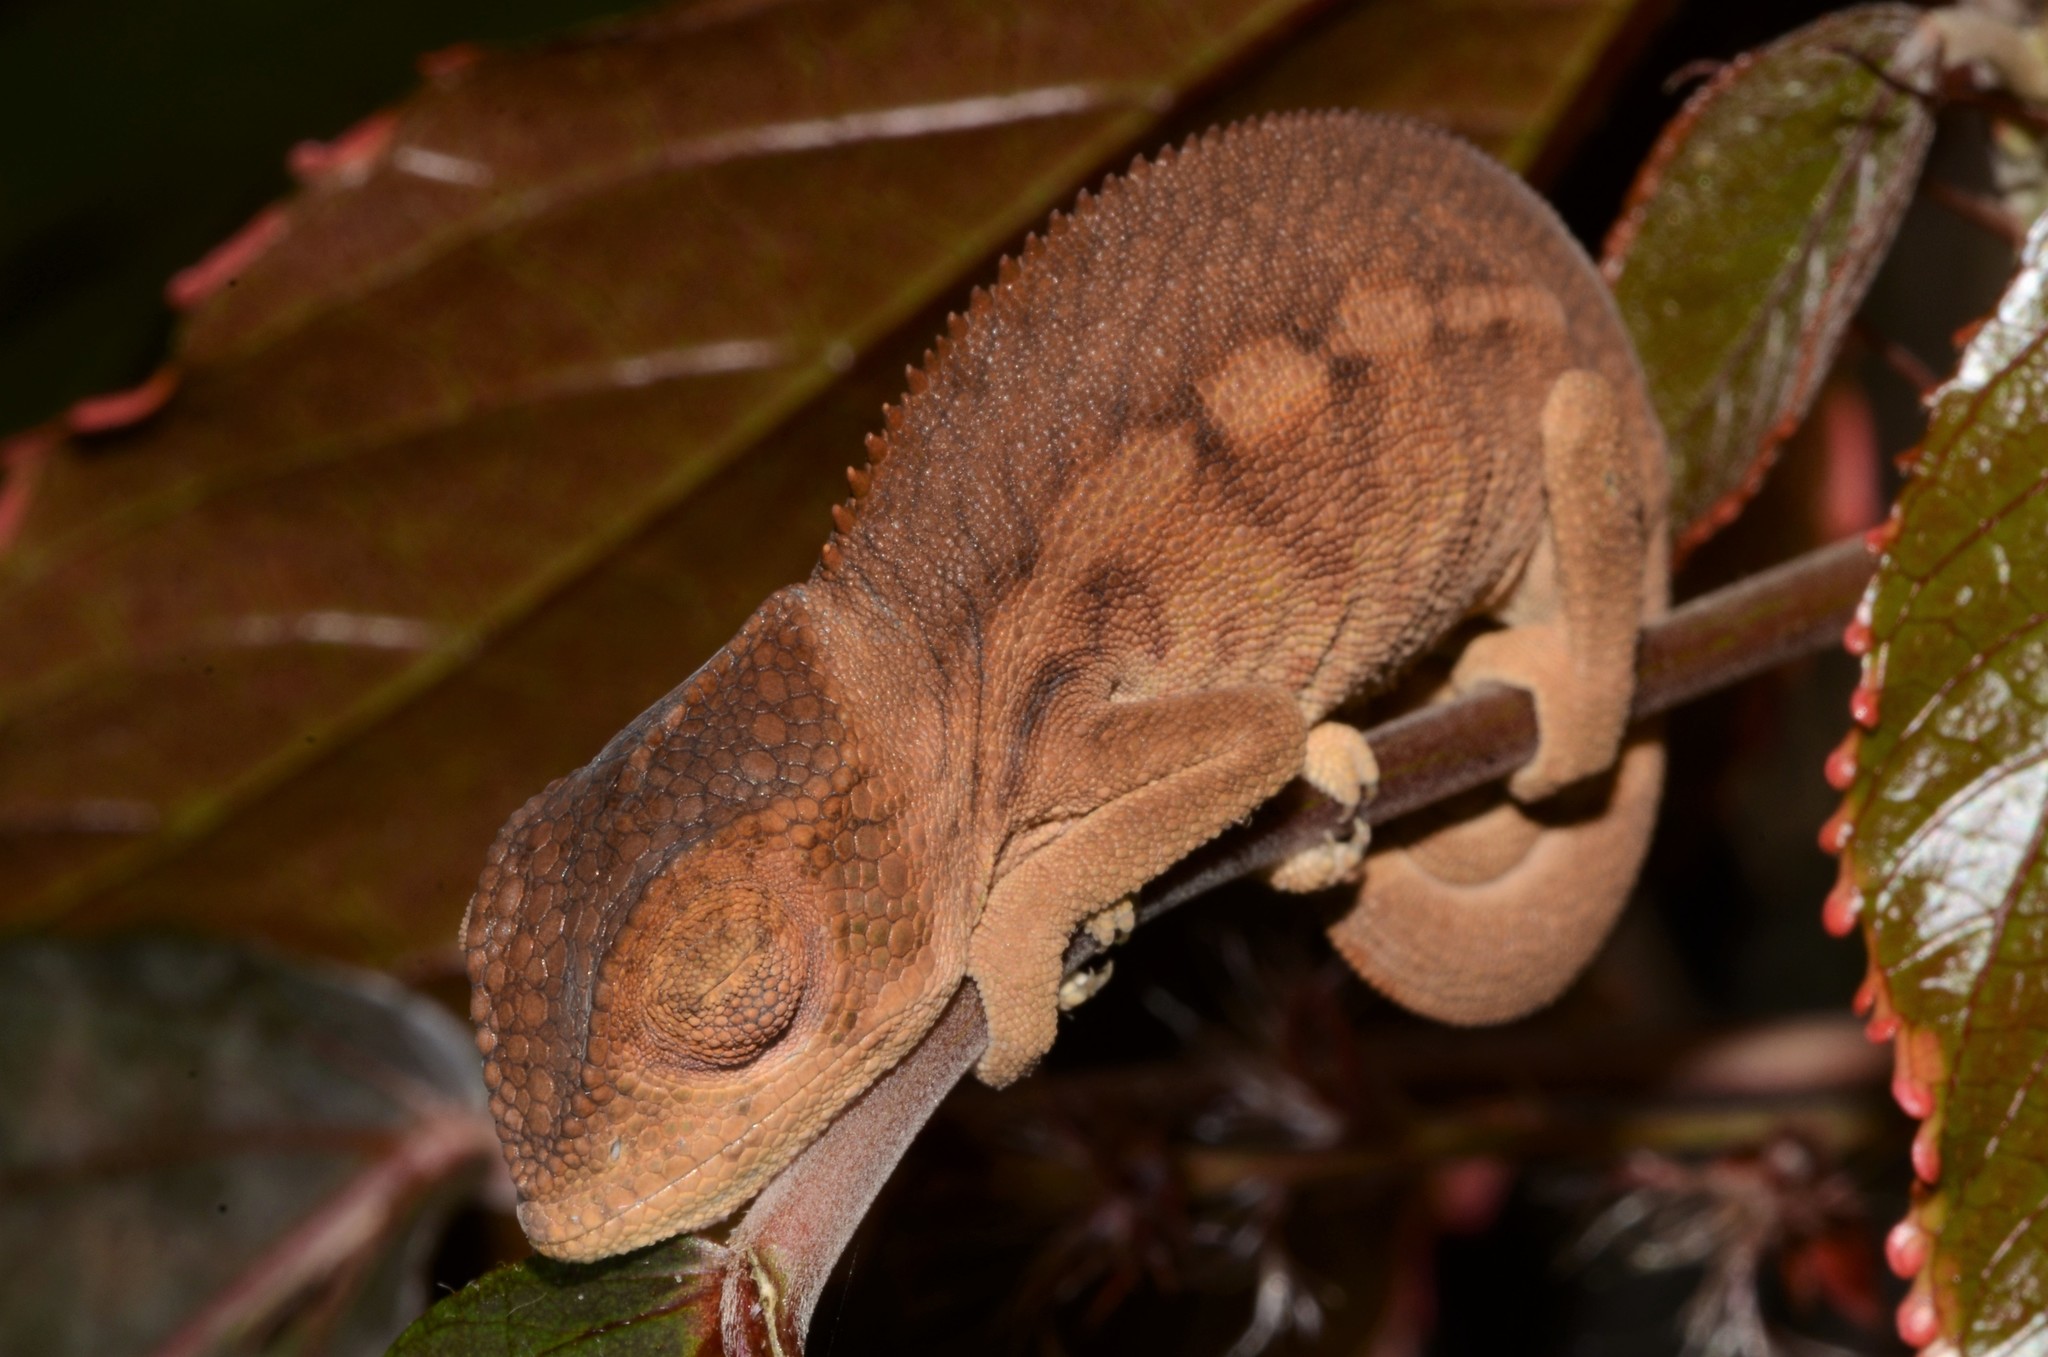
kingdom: Animalia
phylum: Chordata
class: Squamata
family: Chamaeleonidae
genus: Furcifer
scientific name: Furcifer pardalis
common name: Panther chameleon
